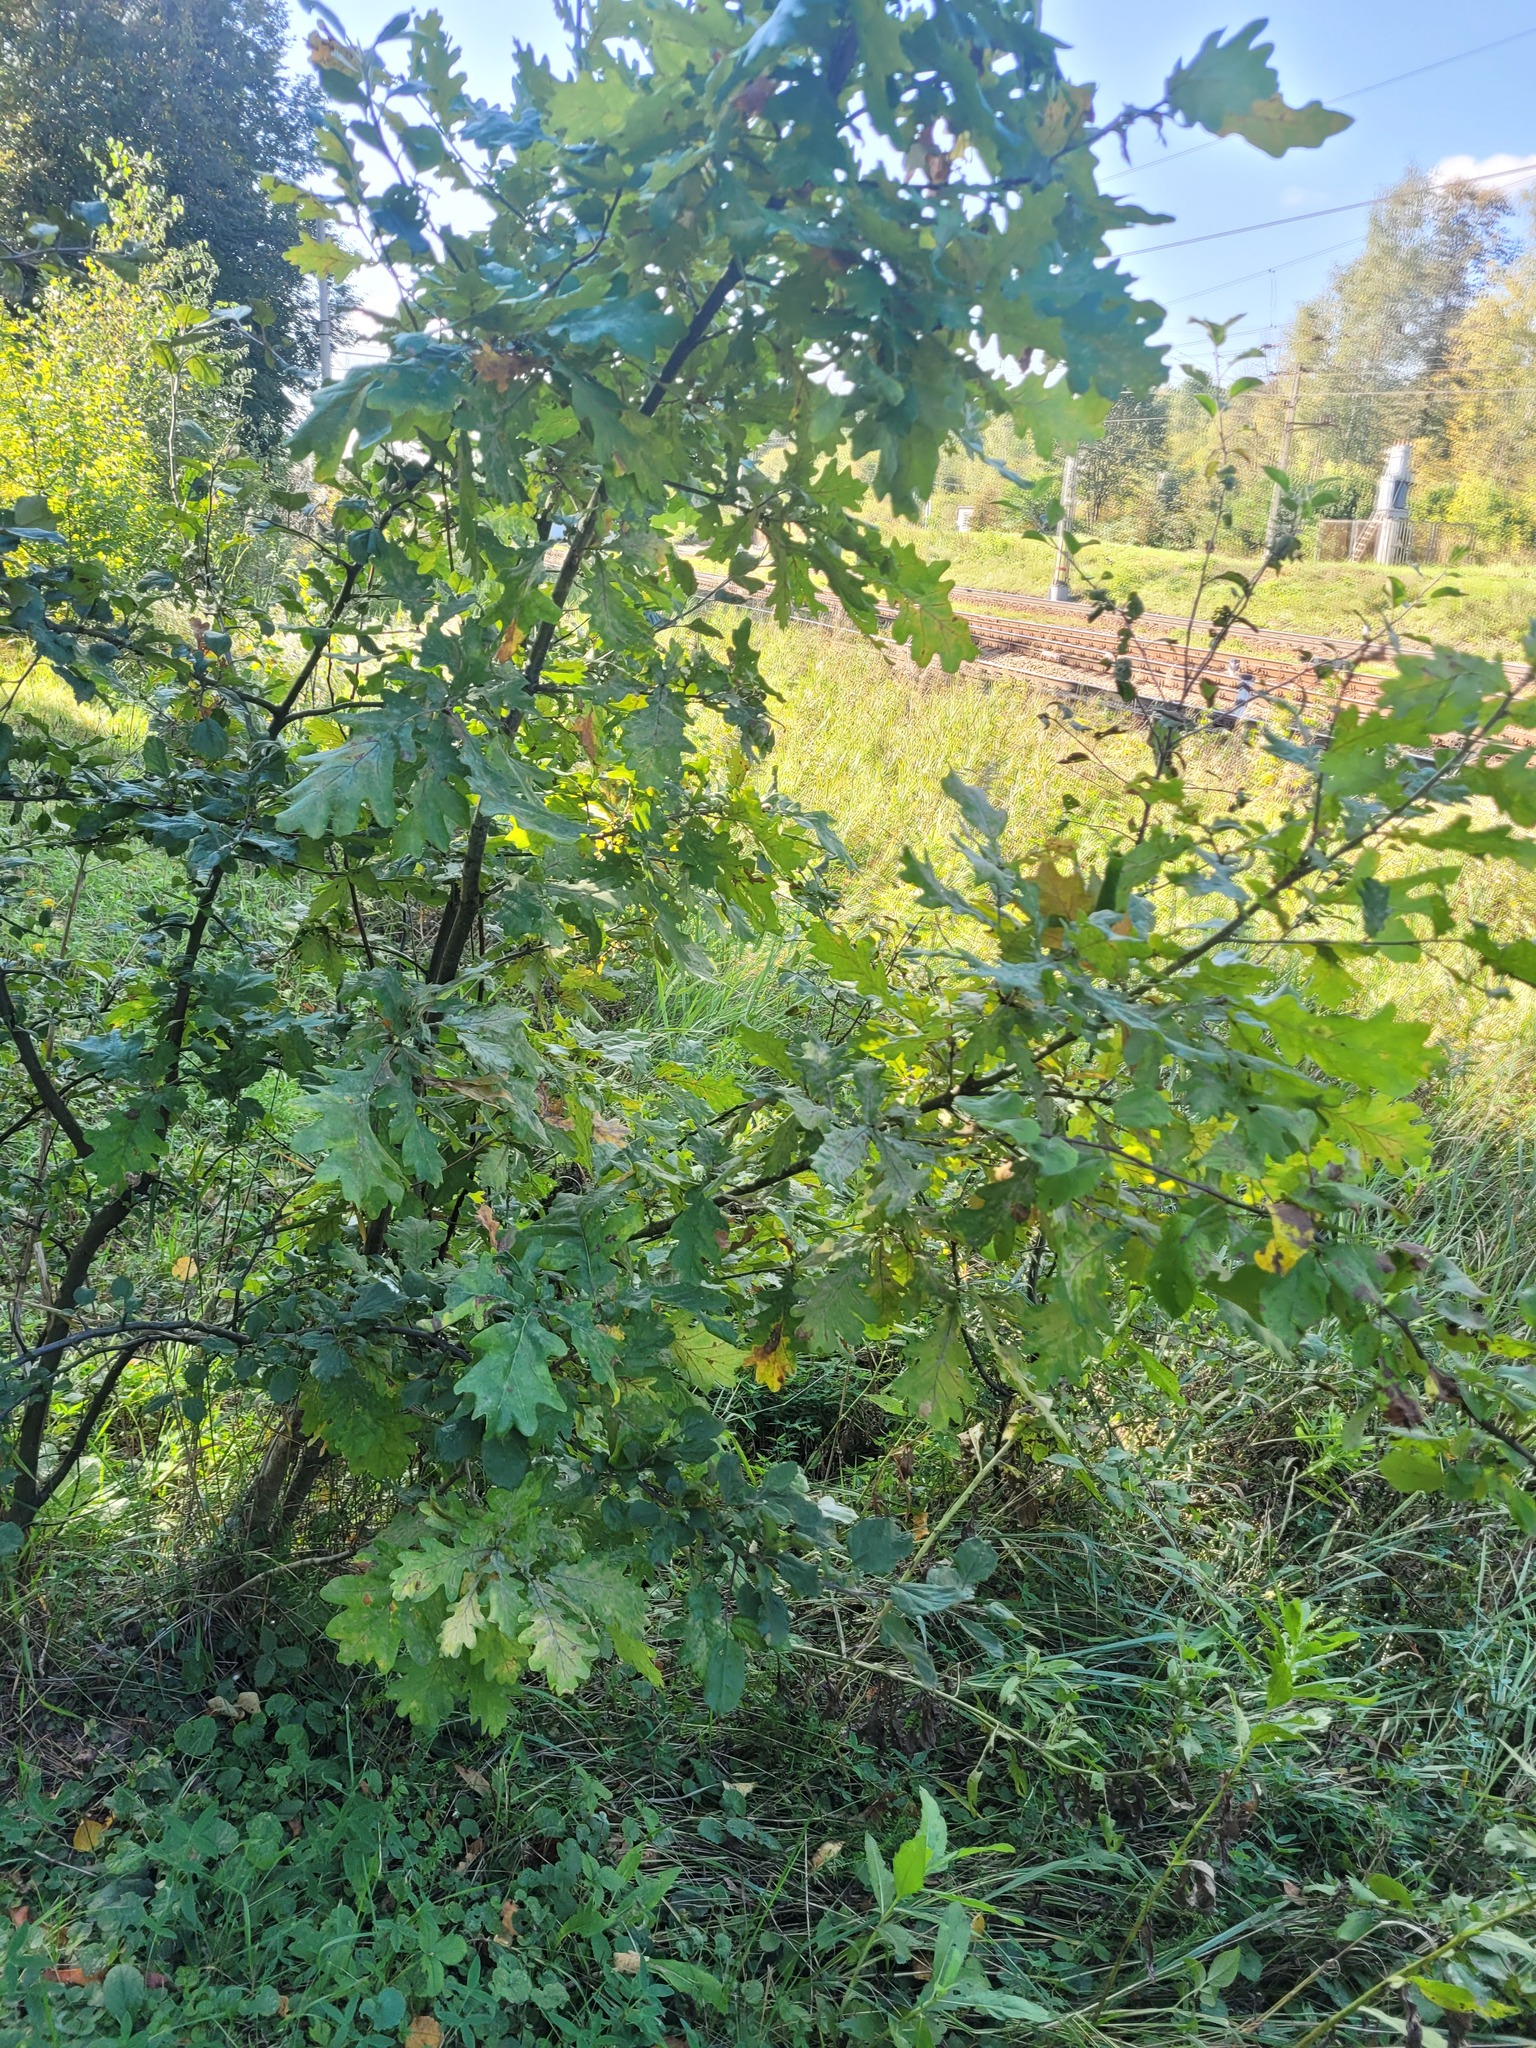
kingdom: Plantae
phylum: Tracheophyta
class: Magnoliopsida
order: Fagales
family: Fagaceae
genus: Quercus
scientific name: Quercus robur
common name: Pedunculate oak
